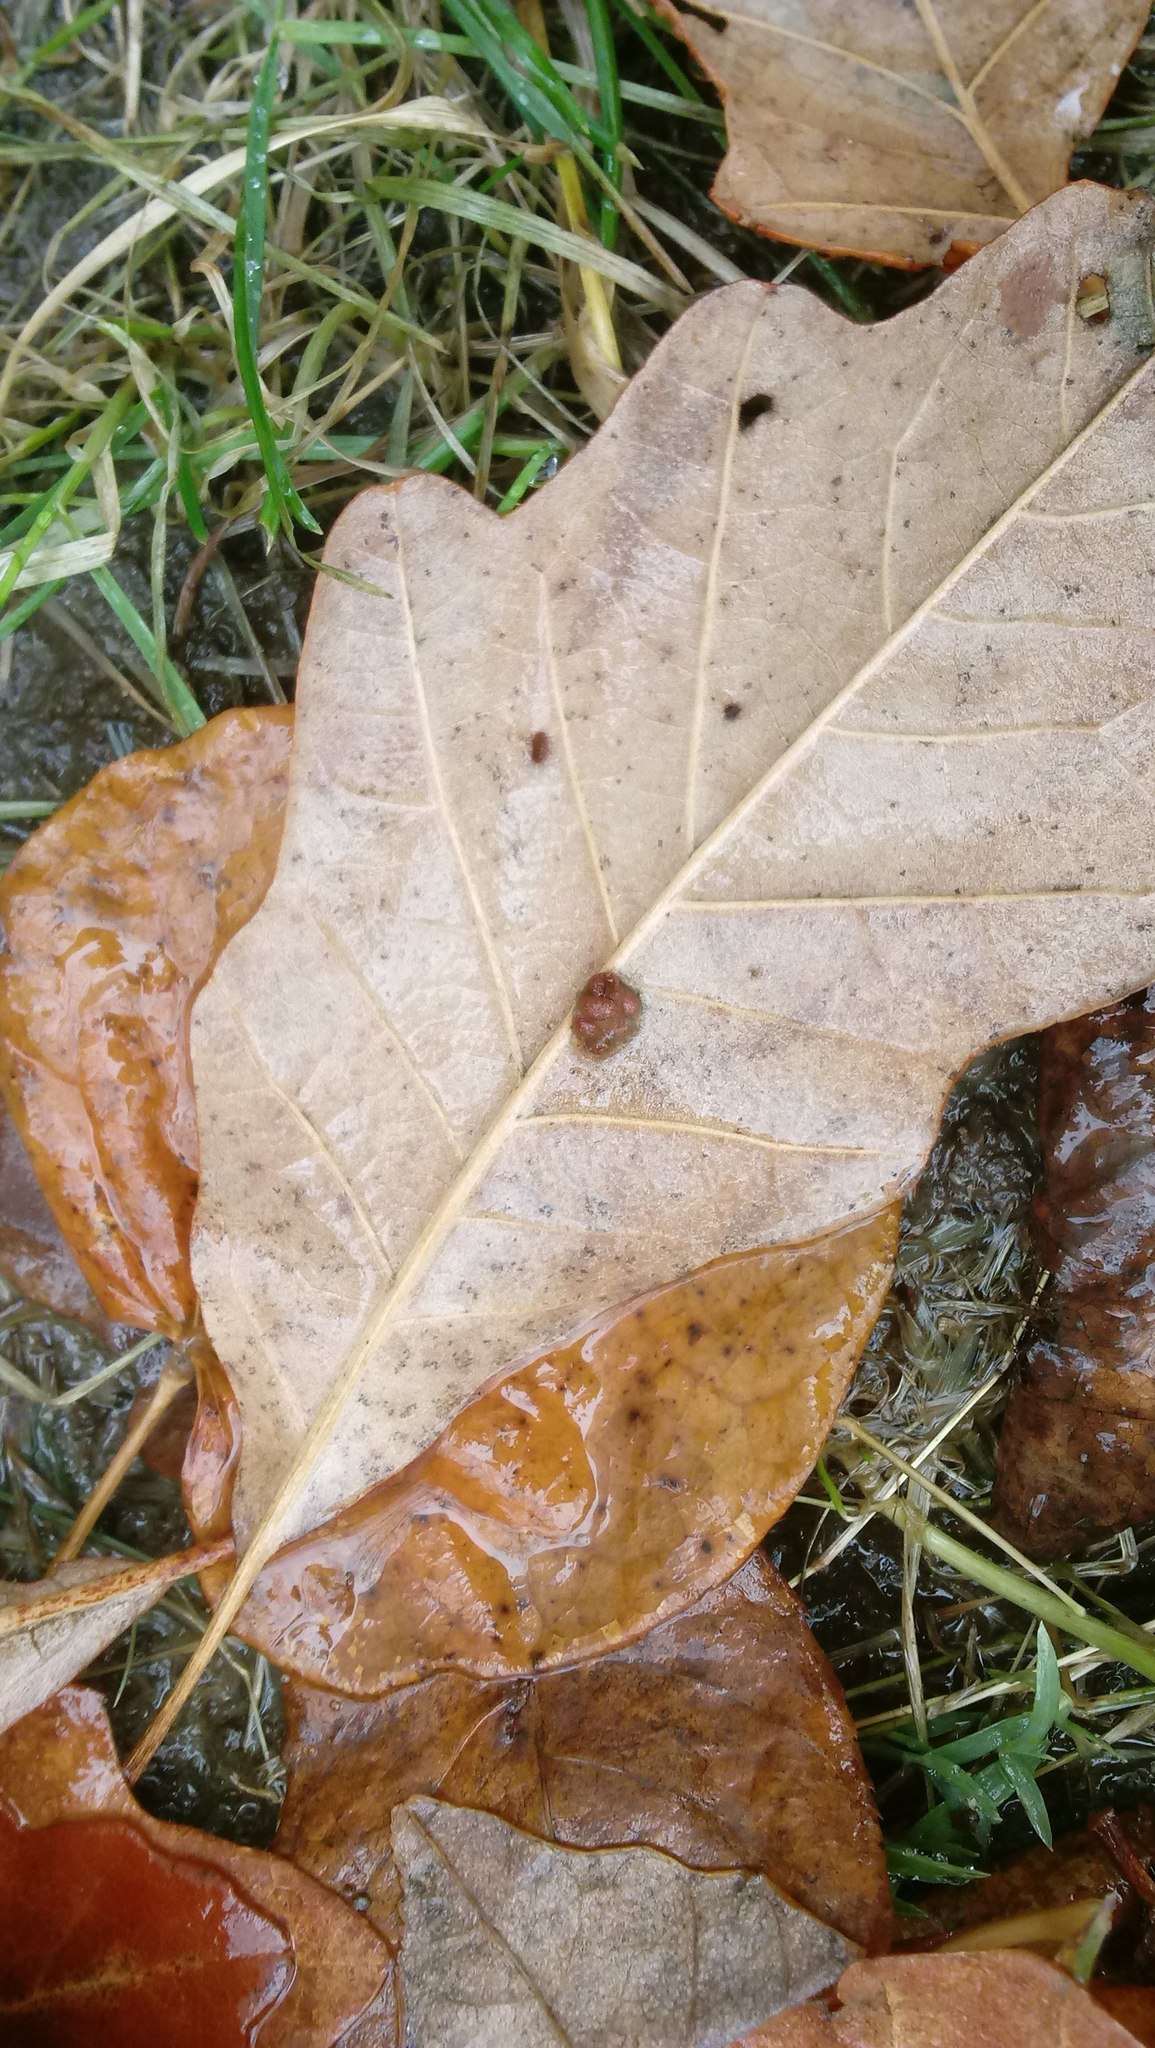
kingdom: Animalia
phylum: Arthropoda
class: Insecta
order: Hymenoptera
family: Cynipidae
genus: Andricus
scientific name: Andricus Druon ignotum
